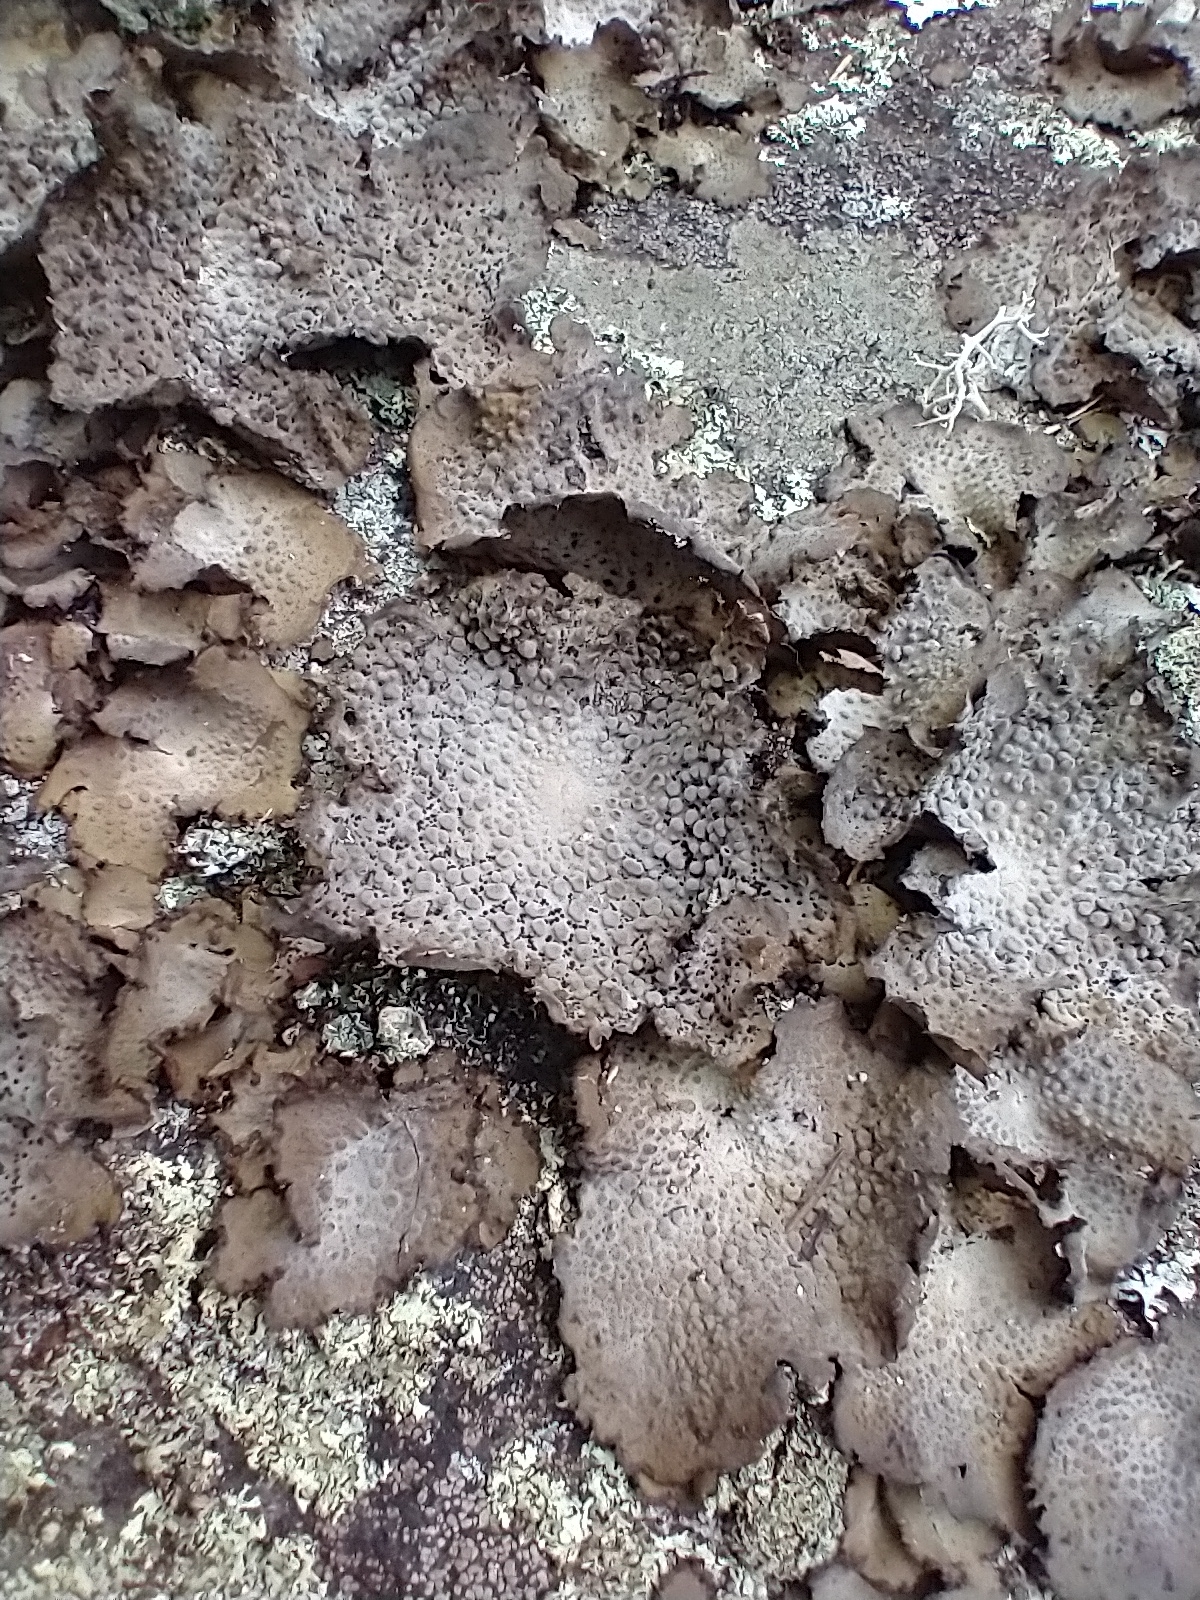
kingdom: Fungi
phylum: Ascomycota
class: Lecanoromycetes
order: Umbilicariales
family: Umbilicariaceae
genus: Lasallia
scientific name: Lasallia papulosa
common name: Common toadskin lichen
